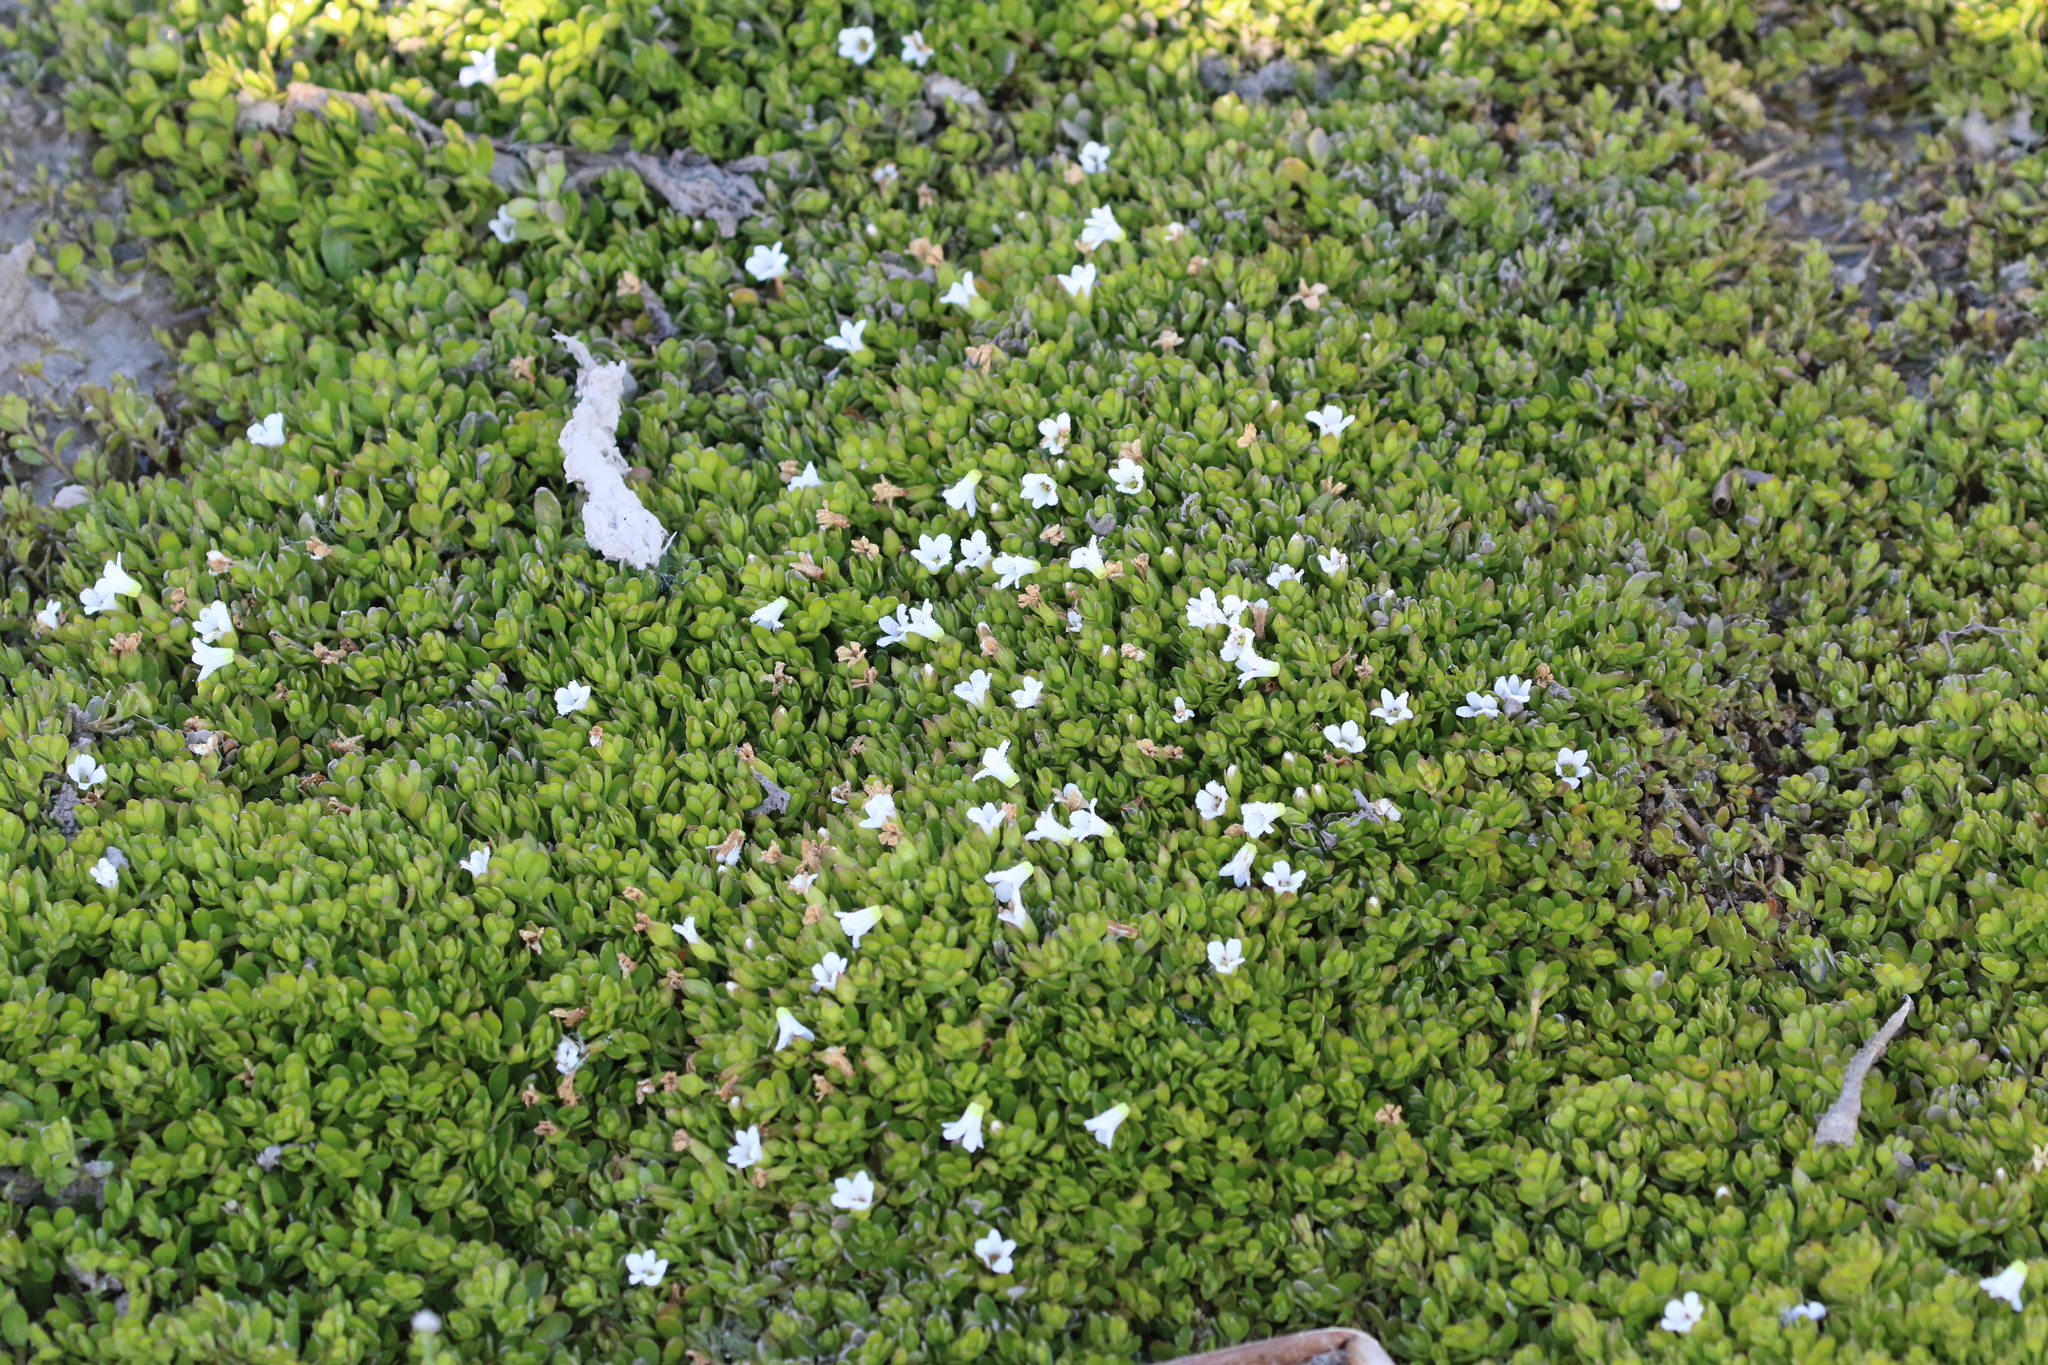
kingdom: Plantae
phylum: Tracheophyta
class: Magnoliopsida
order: Lamiales
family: Plantaginaceae
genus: Bacopa
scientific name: Bacopa monnieri
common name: Indian-pennywort
